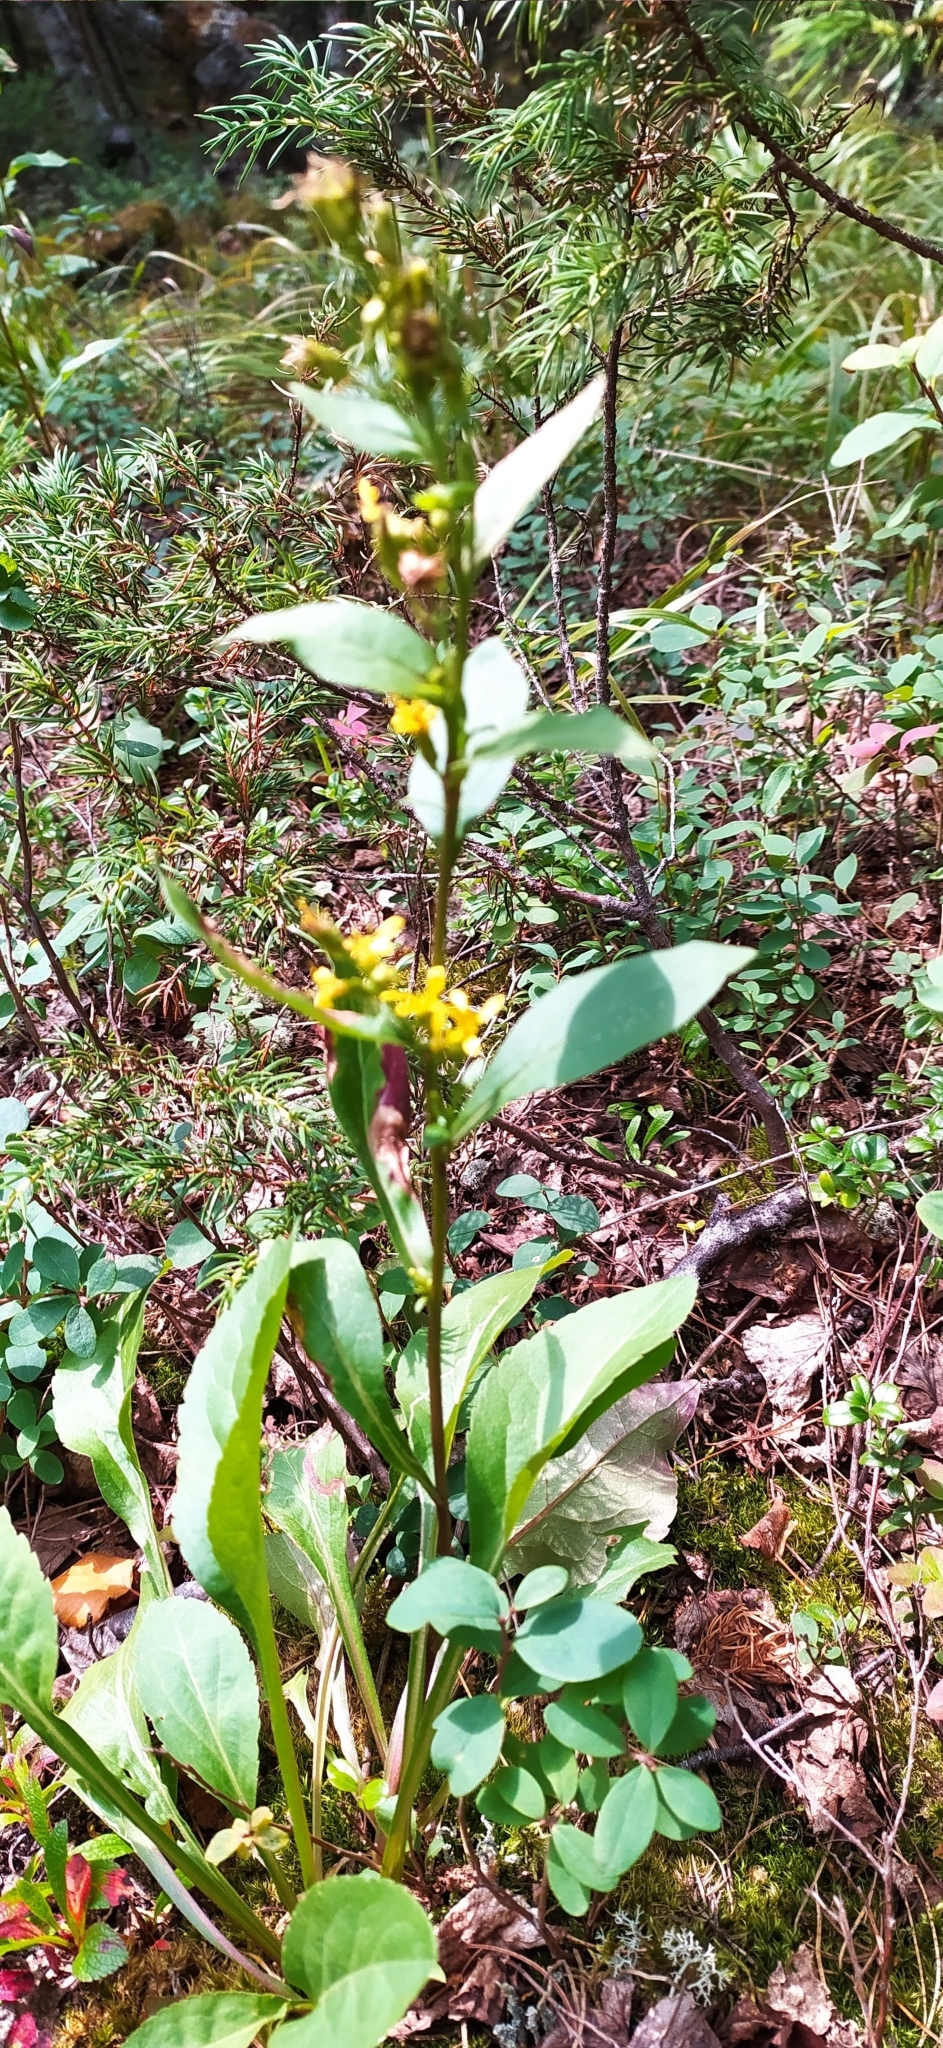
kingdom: Plantae
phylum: Tracheophyta
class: Magnoliopsida
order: Asterales
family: Asteraceae
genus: Solidago
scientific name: Solidago virgaurea
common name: Goldenrod
